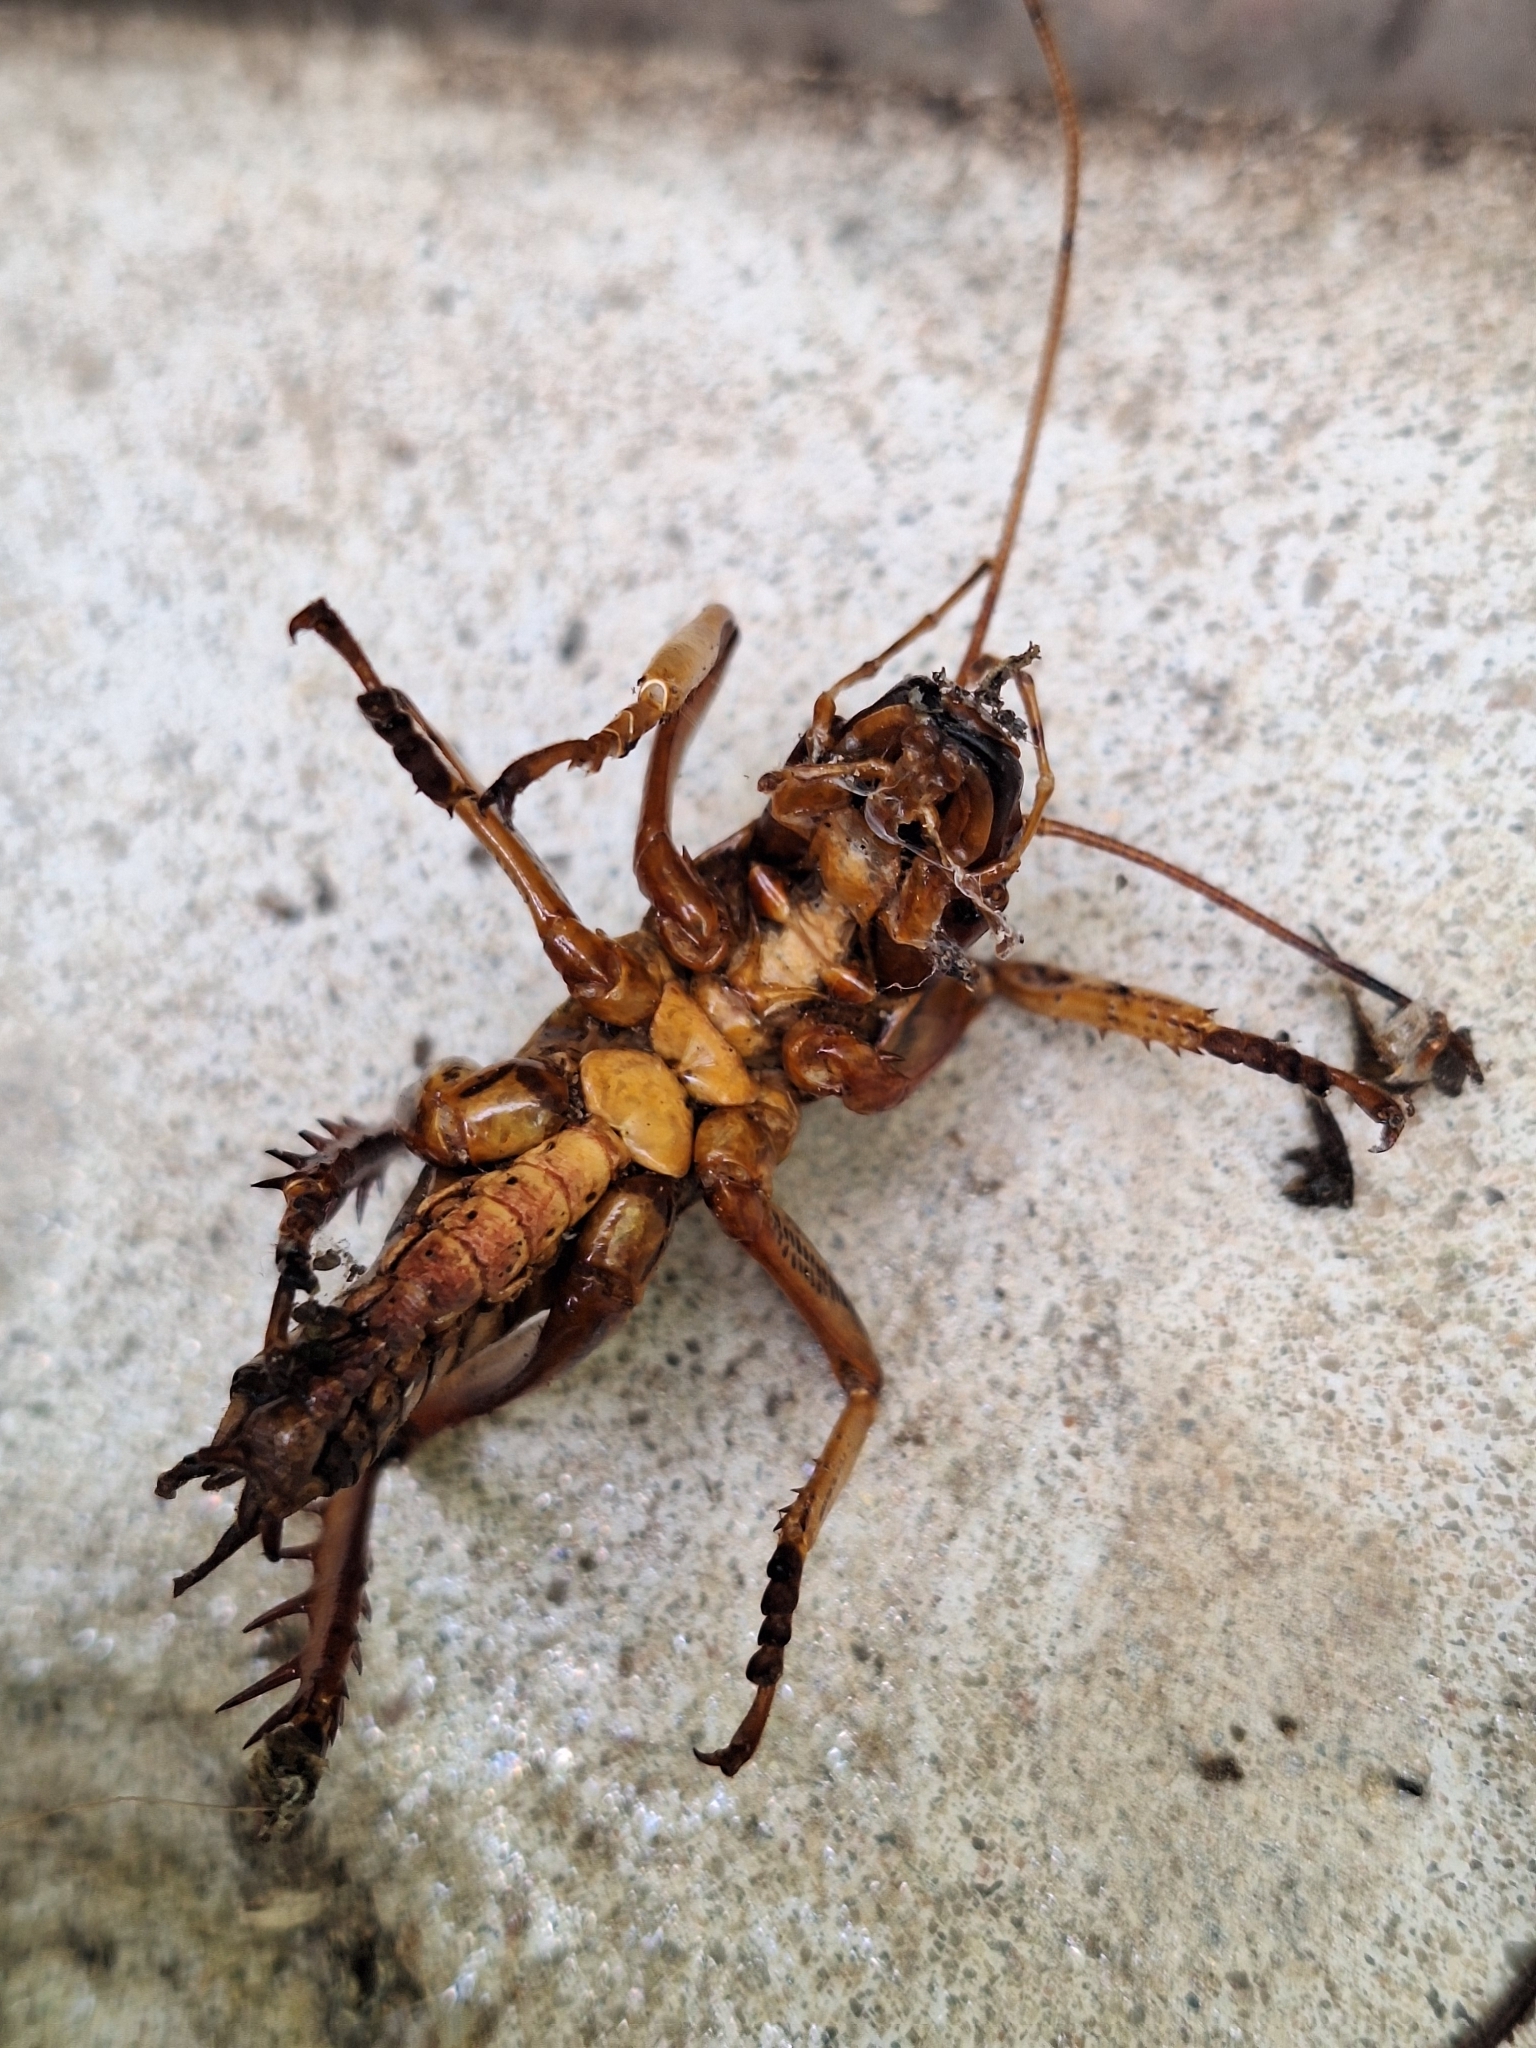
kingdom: Animalia
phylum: Arthropoda
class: Insecta
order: Orthoptera
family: Anostostomatidae
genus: Hemideina
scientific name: Hemideina crassidens
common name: Wellington tree weta
